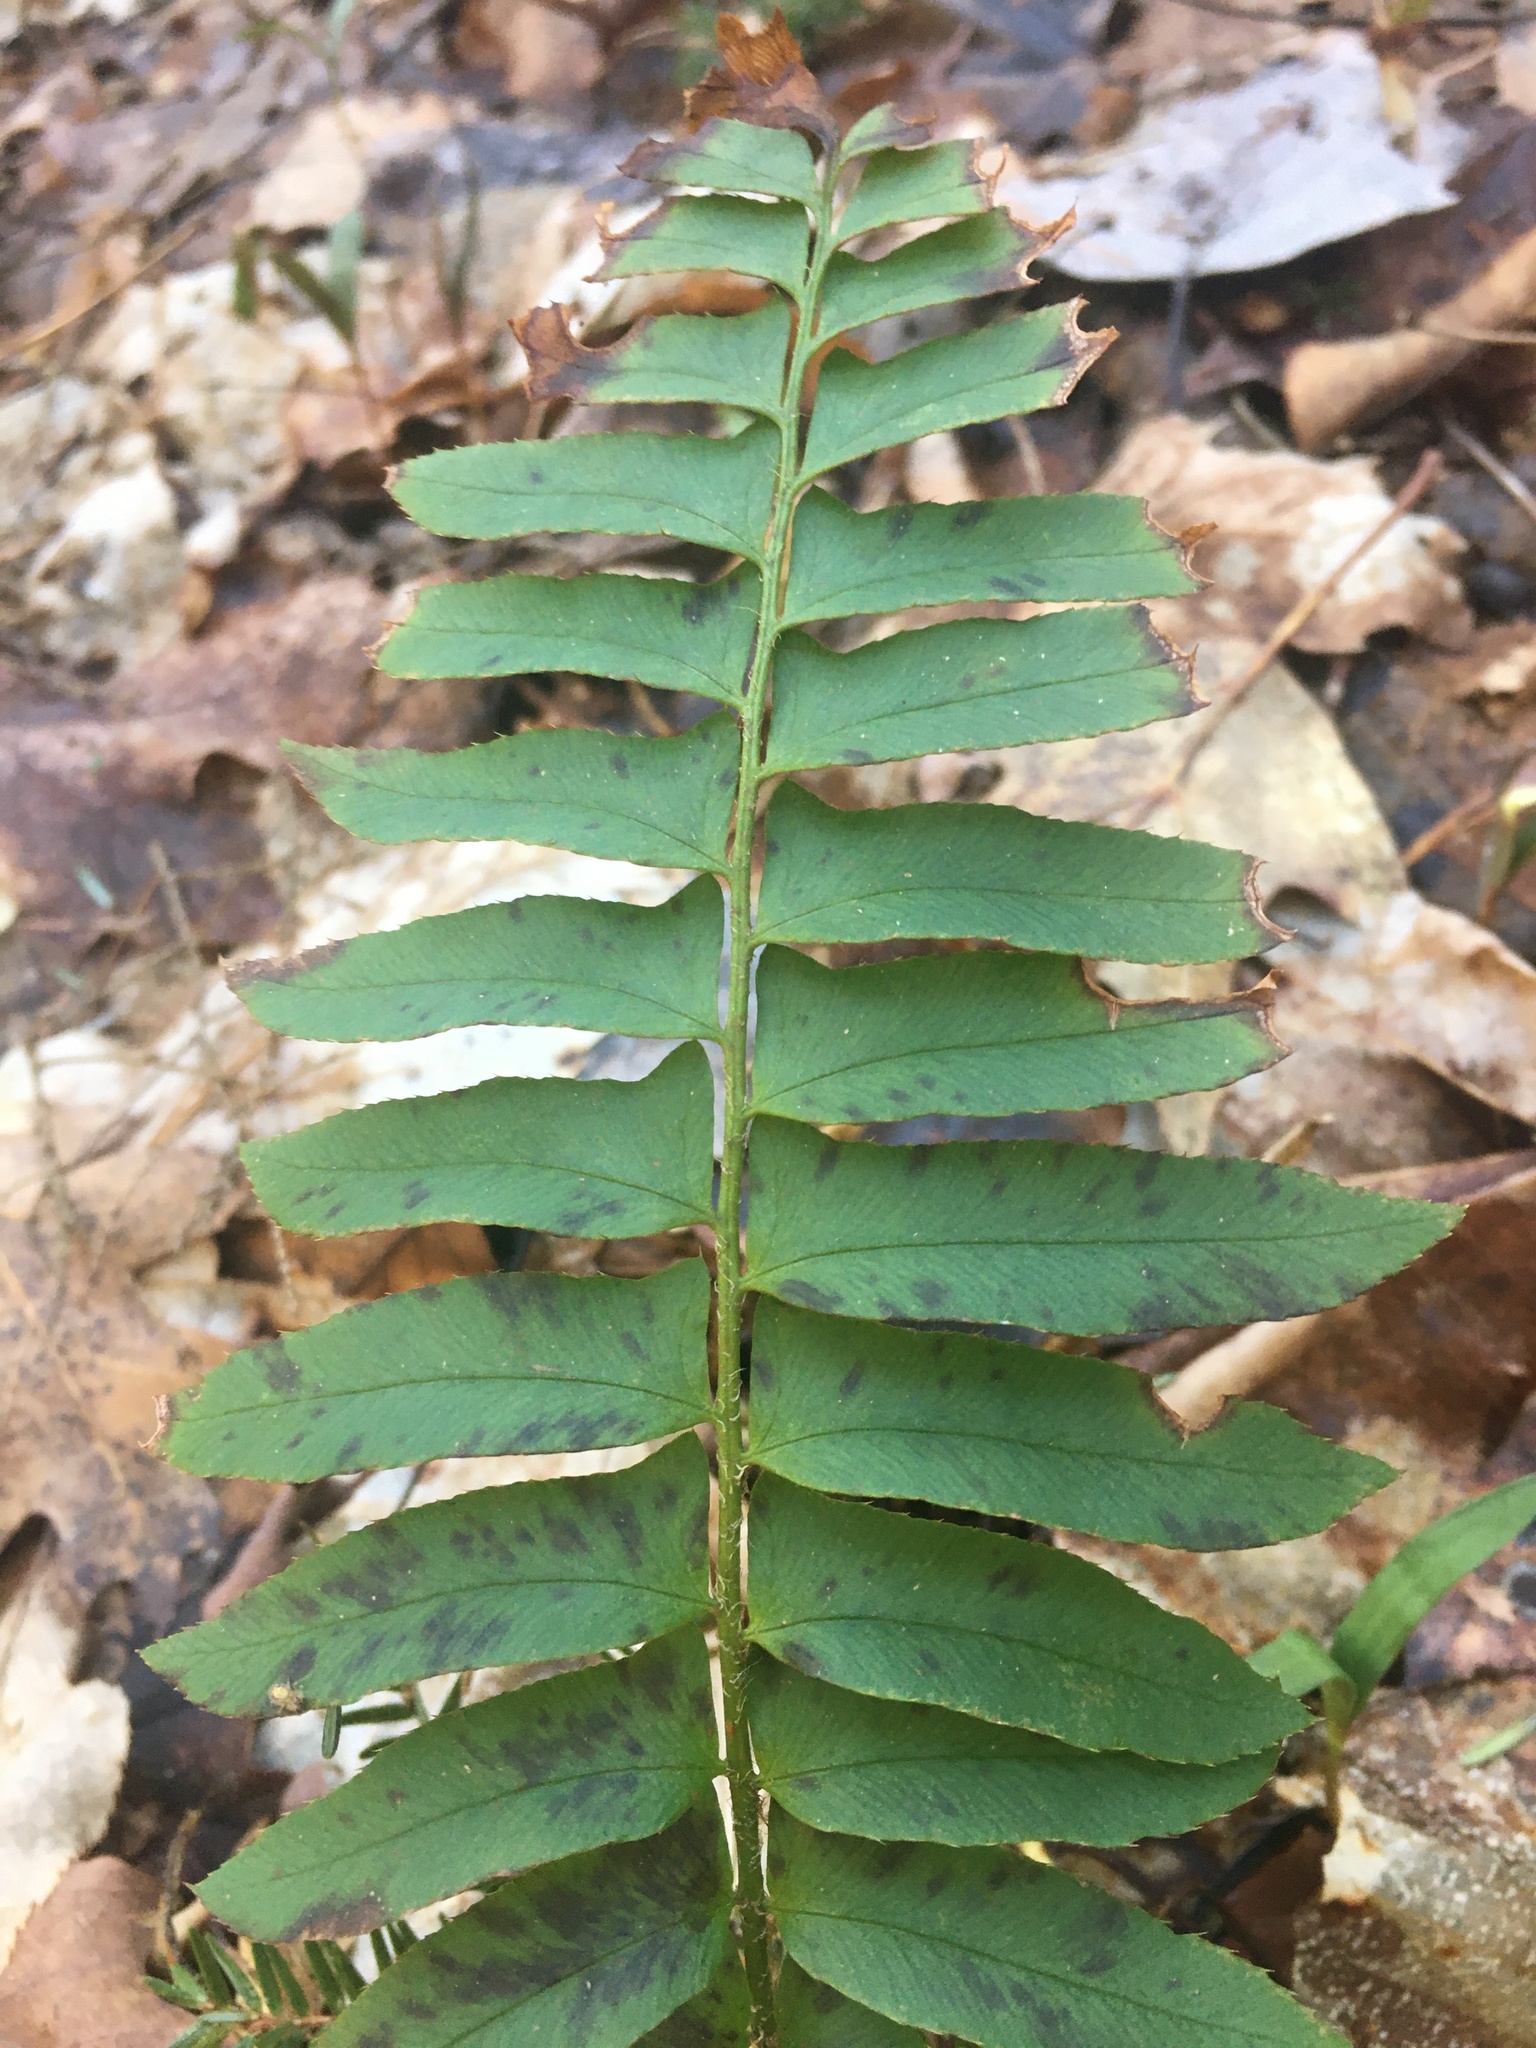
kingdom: Plantae
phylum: Tracheophyta
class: Polypodiopsida
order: Polypodiales
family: Dryopteridaceae
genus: Polystichum
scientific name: Polystichum acrostichoides
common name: Christmas fern
